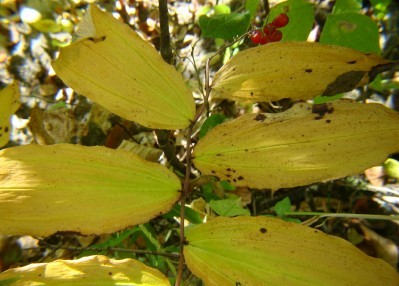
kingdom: Plantae
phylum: Tracheophyta
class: Liliopsida
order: Asparagales
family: Asparagaceae
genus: Maianthemum
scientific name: Maianthemum racemosum
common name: False spikenard
